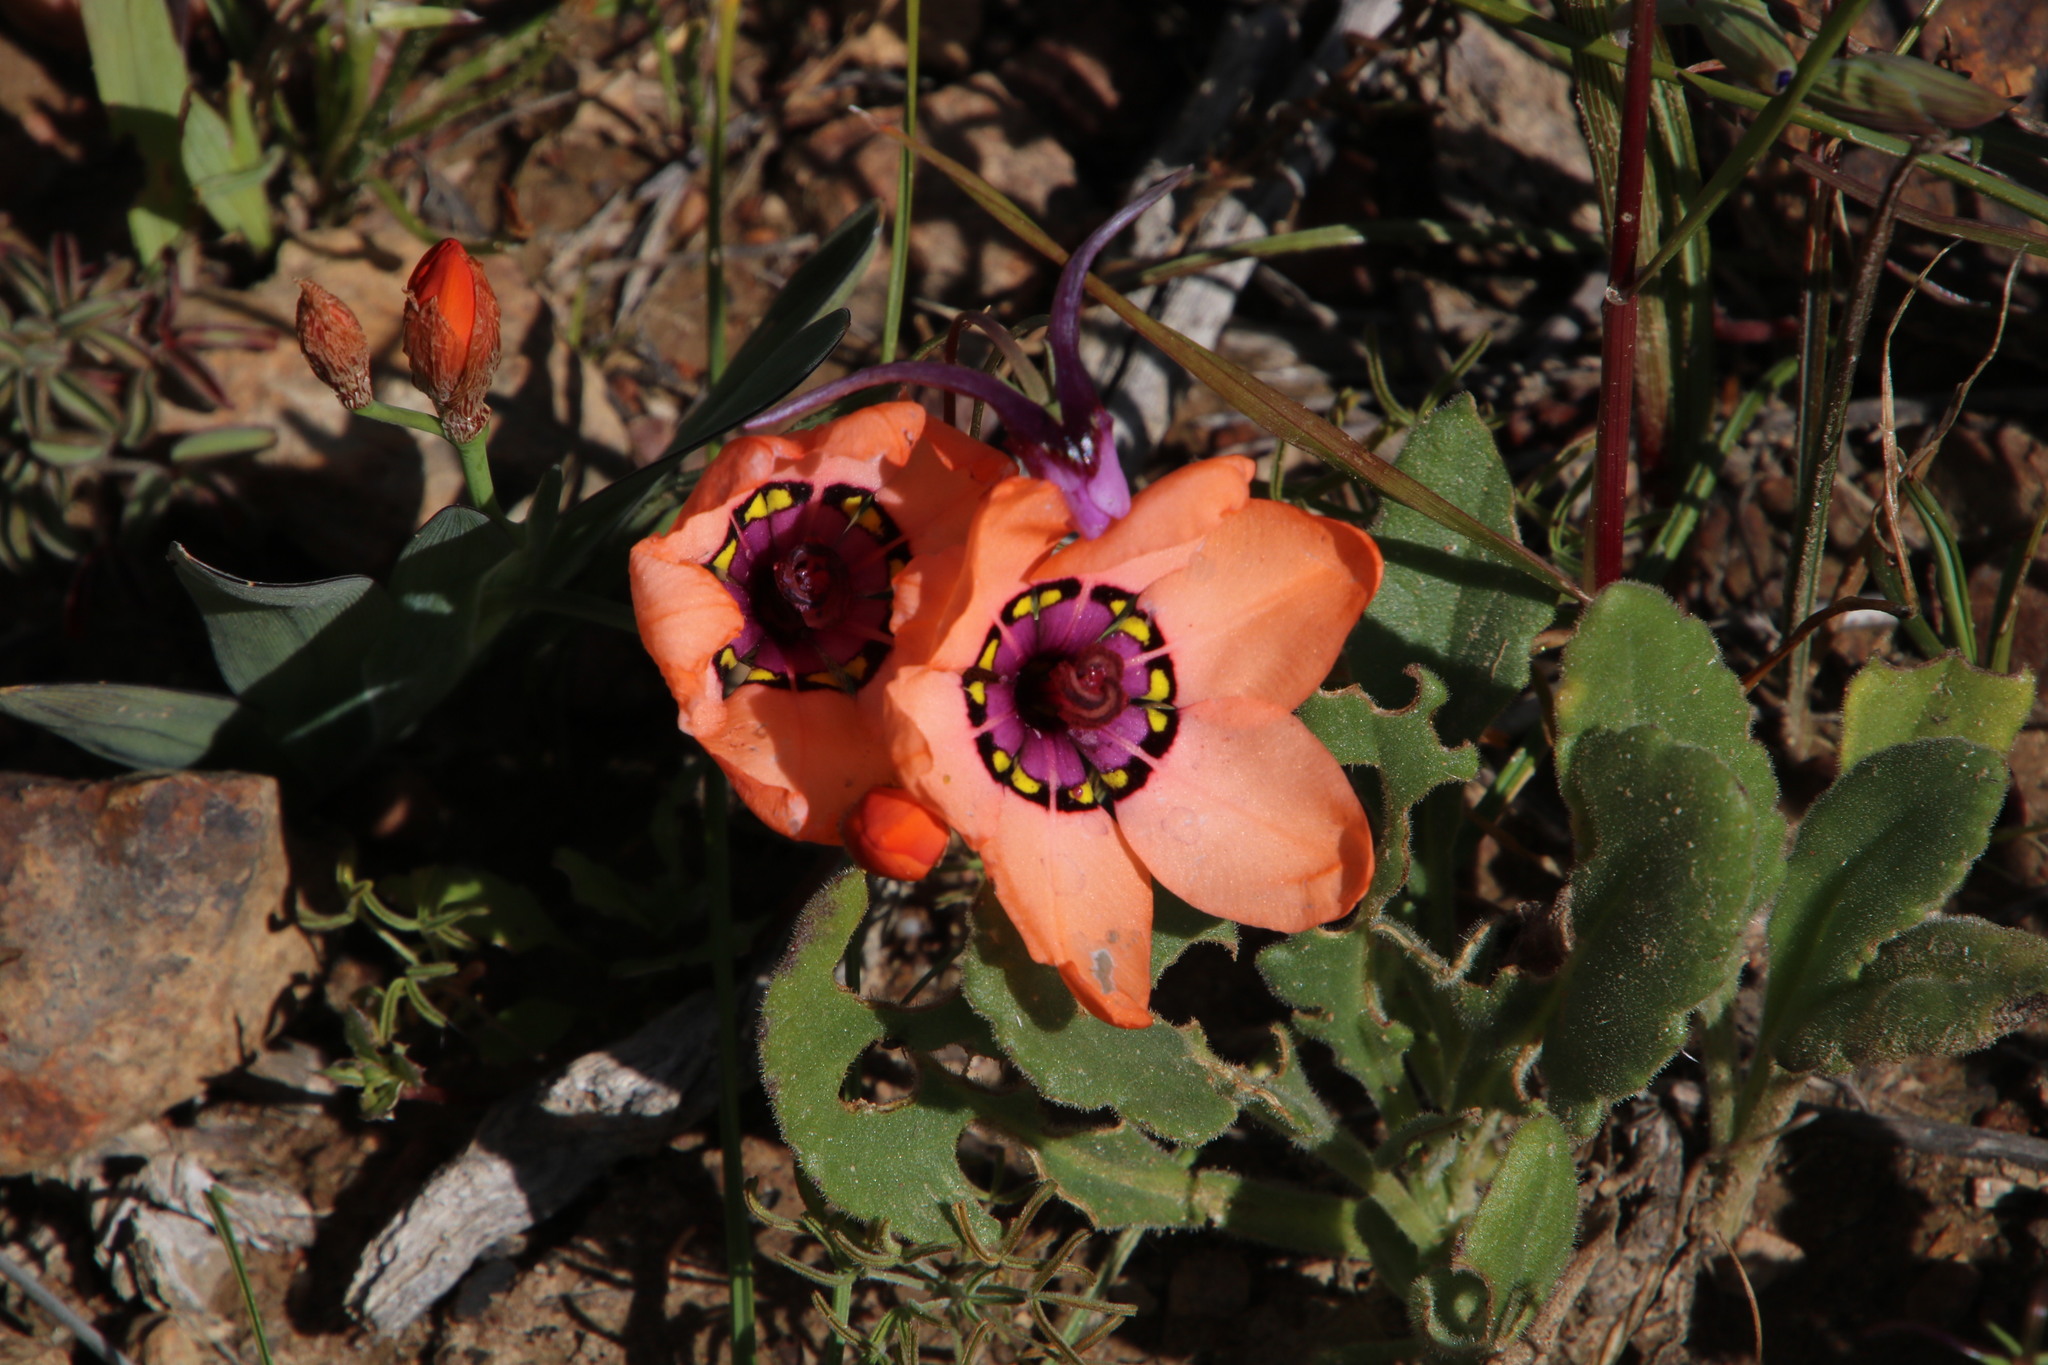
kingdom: Plantae
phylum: Tracheophyta
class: Liliopsida
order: Asparagales
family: Iridaceae
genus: Sparaxis
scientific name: Sparaxis elegans
